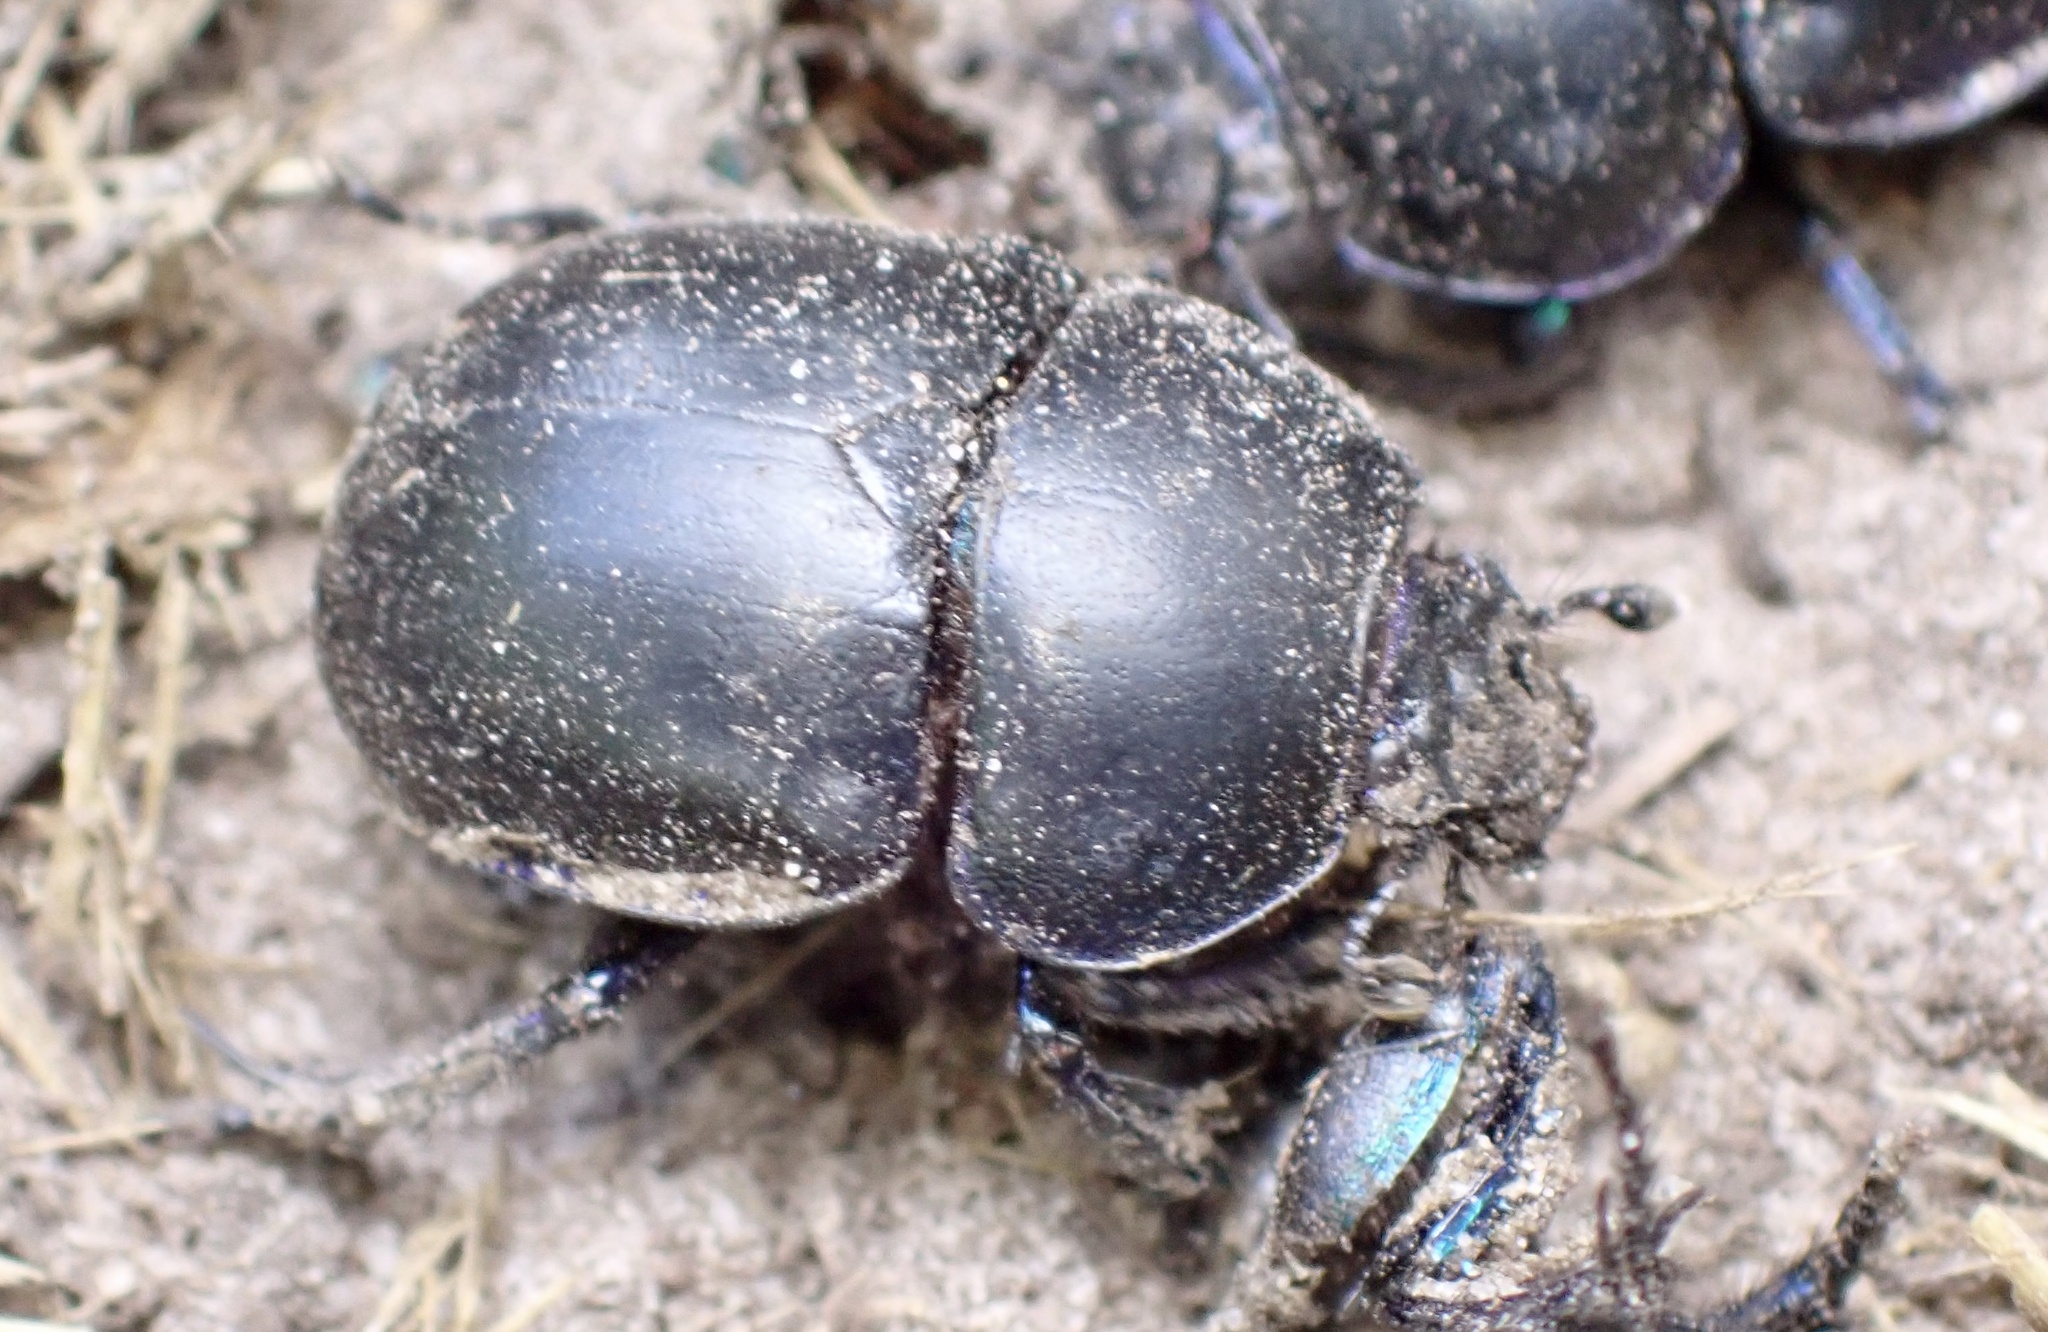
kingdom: Animalia
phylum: Arthropoda
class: Insecta
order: Coleoptera
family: Geotrupidae
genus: Trypocopris
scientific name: Trypocopris vernalis
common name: Spring dumbledor
